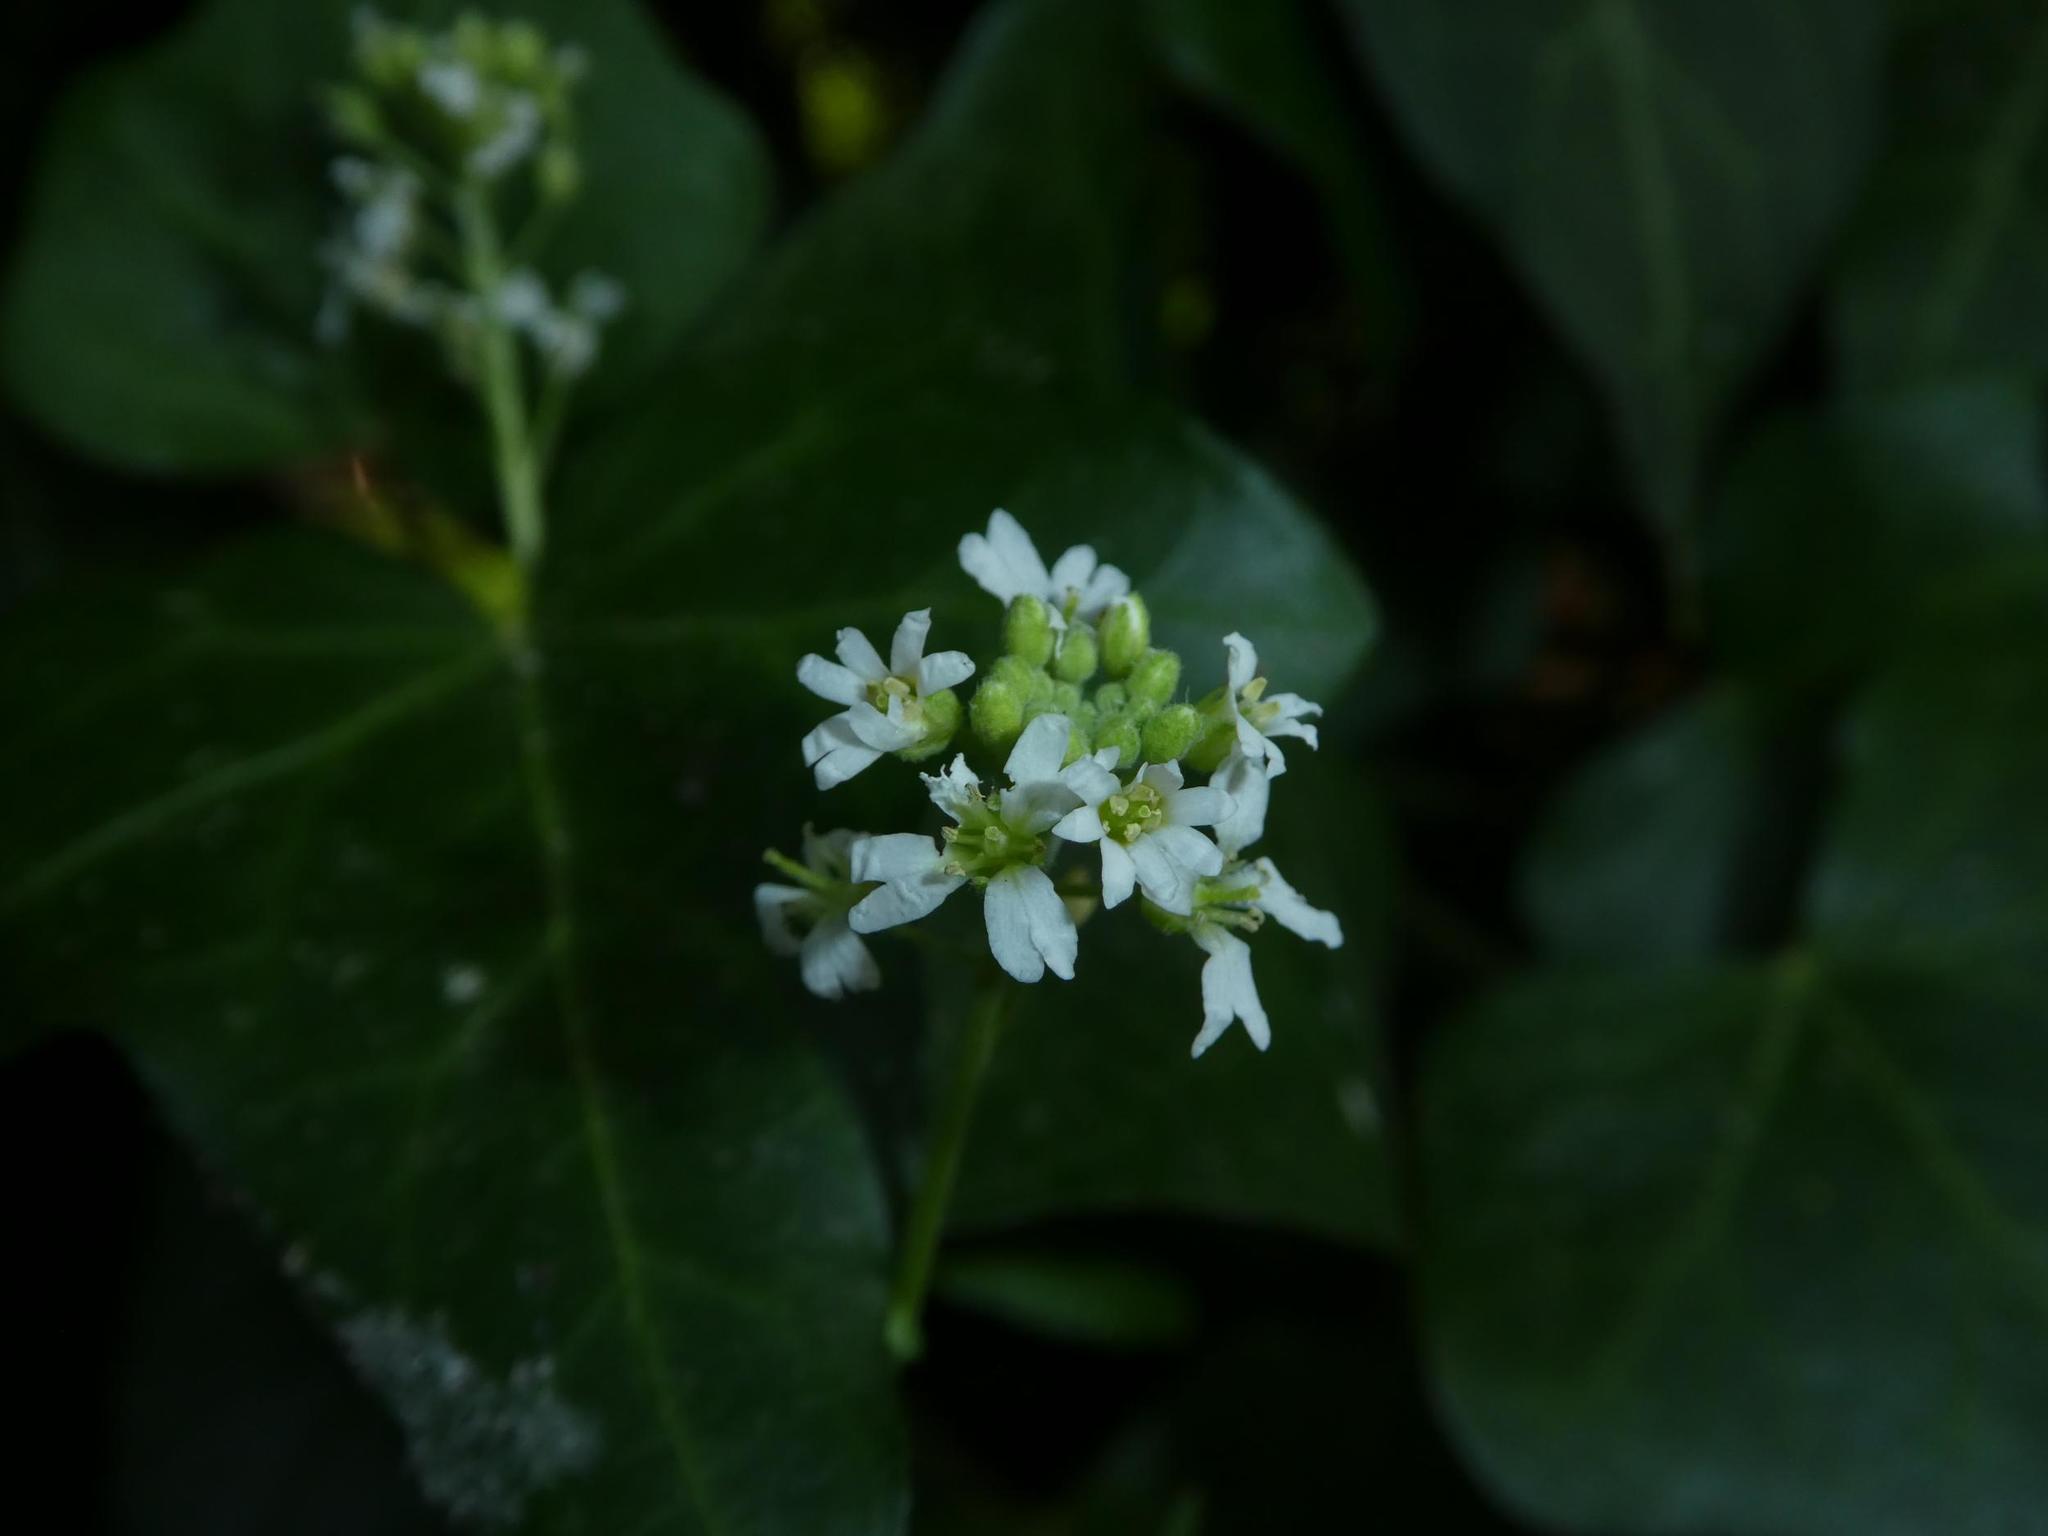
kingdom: Plantae
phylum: Tracheophyta
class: Magnoliopsida
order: Brassicales
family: Brassicaceae
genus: Berteroa
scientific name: Berteroa incana
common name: Hoary alison
